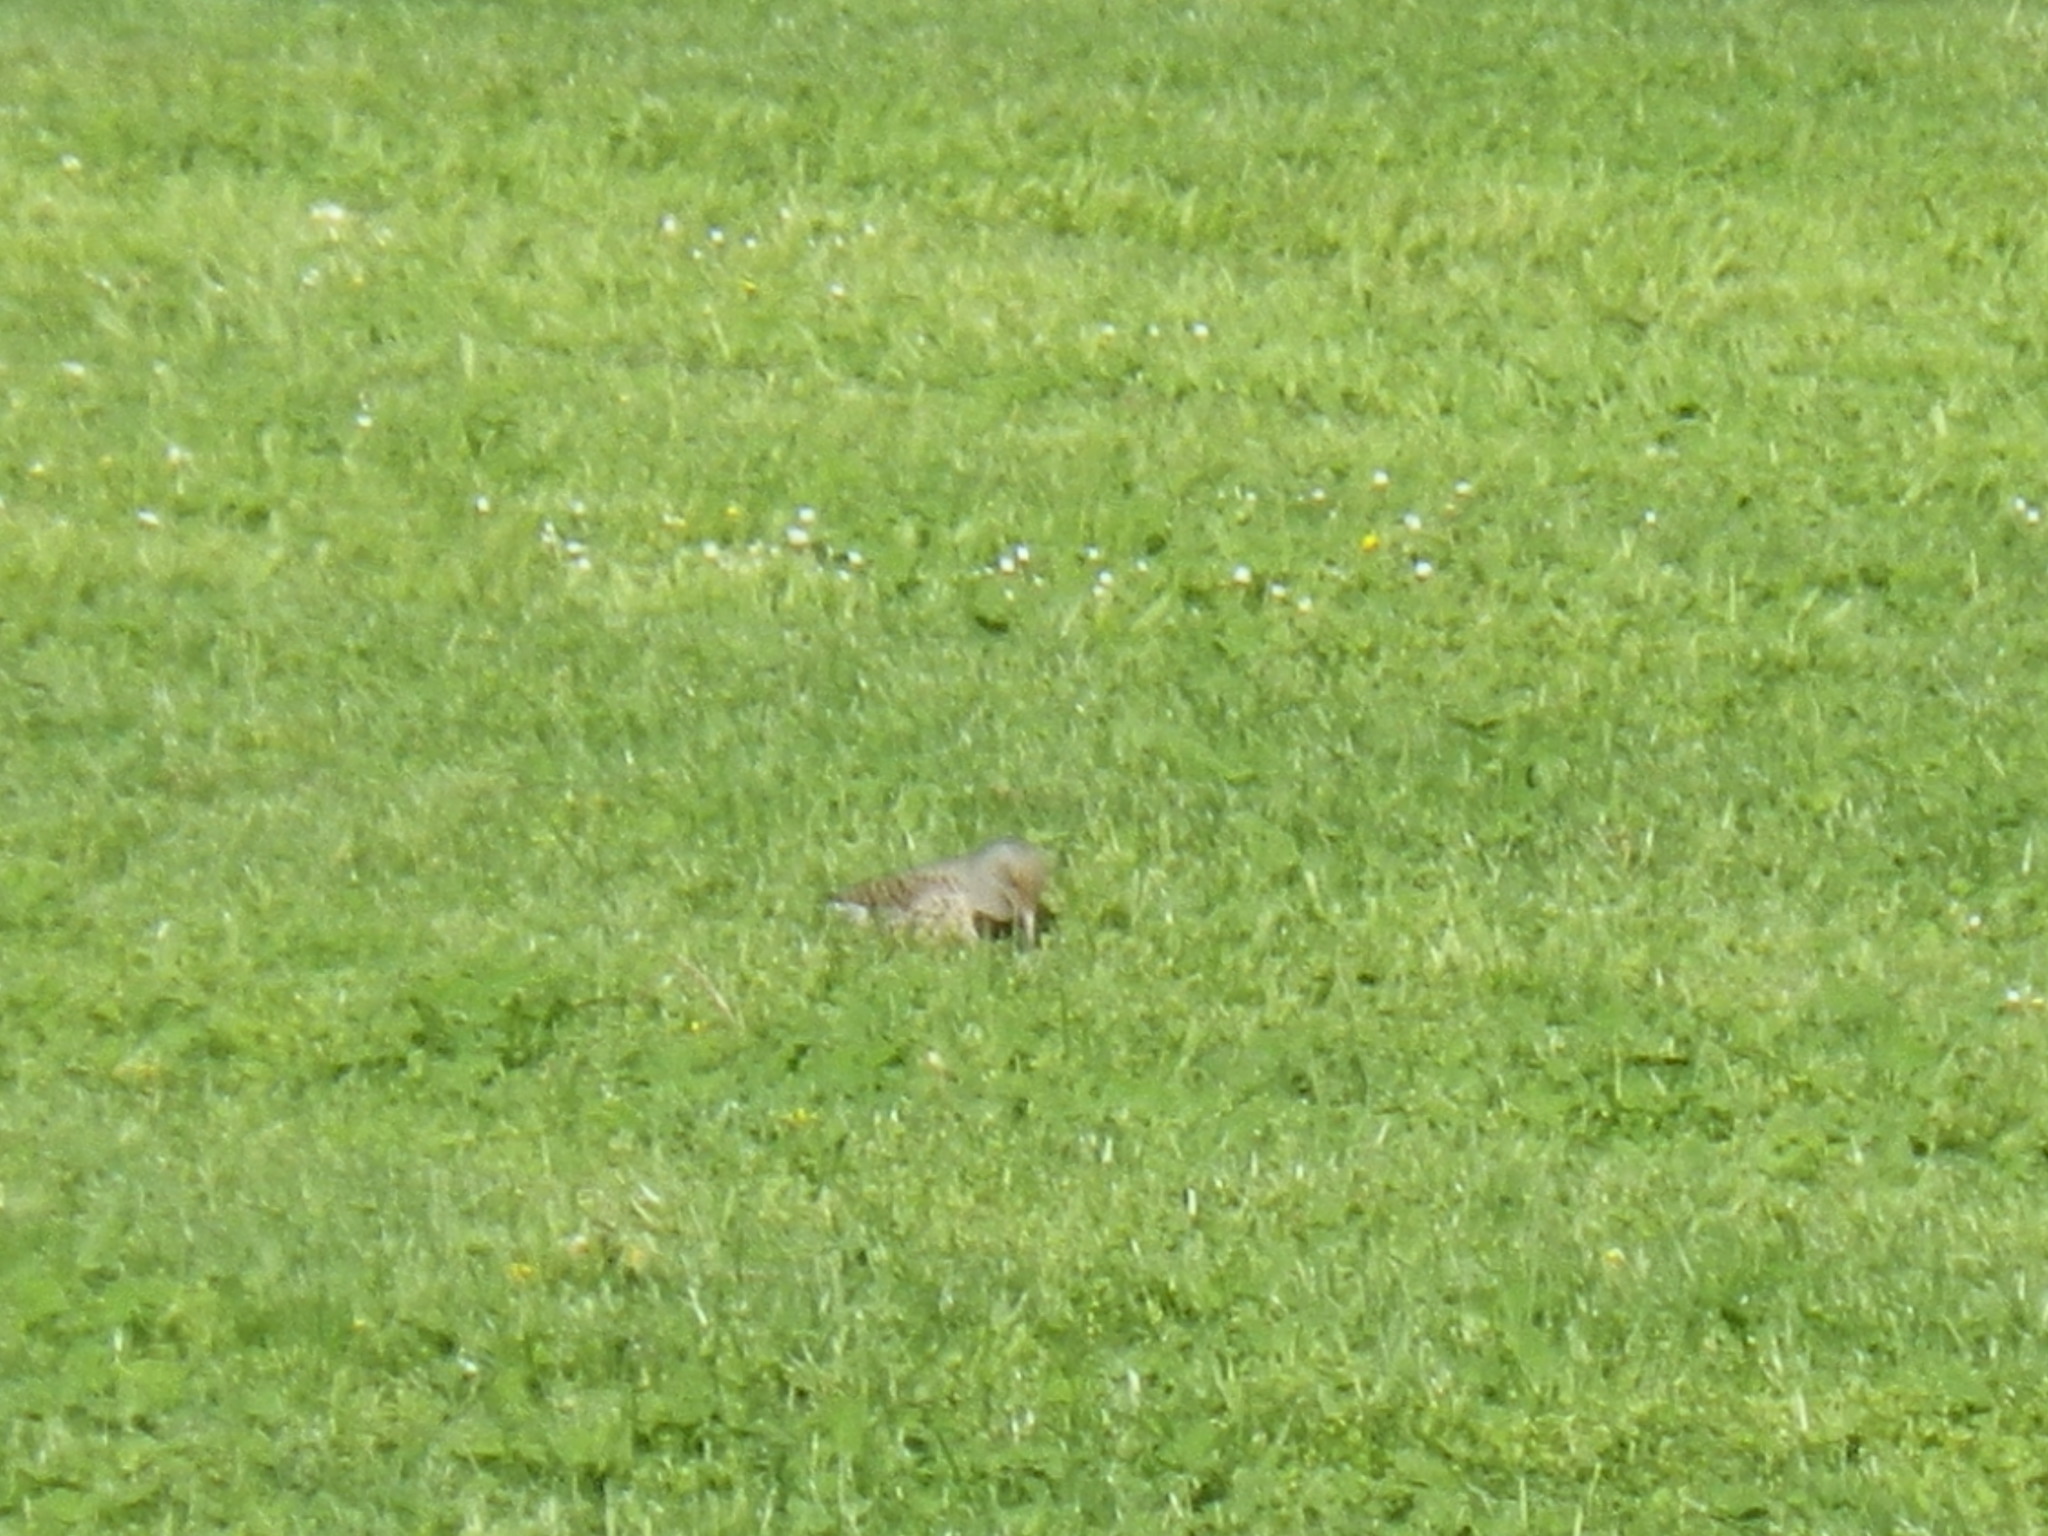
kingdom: Animalia
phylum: Chordata
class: Aves
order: Piciformes
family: Picidae
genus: Colaptes
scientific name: Colaptes auratus
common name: Northern flicker
